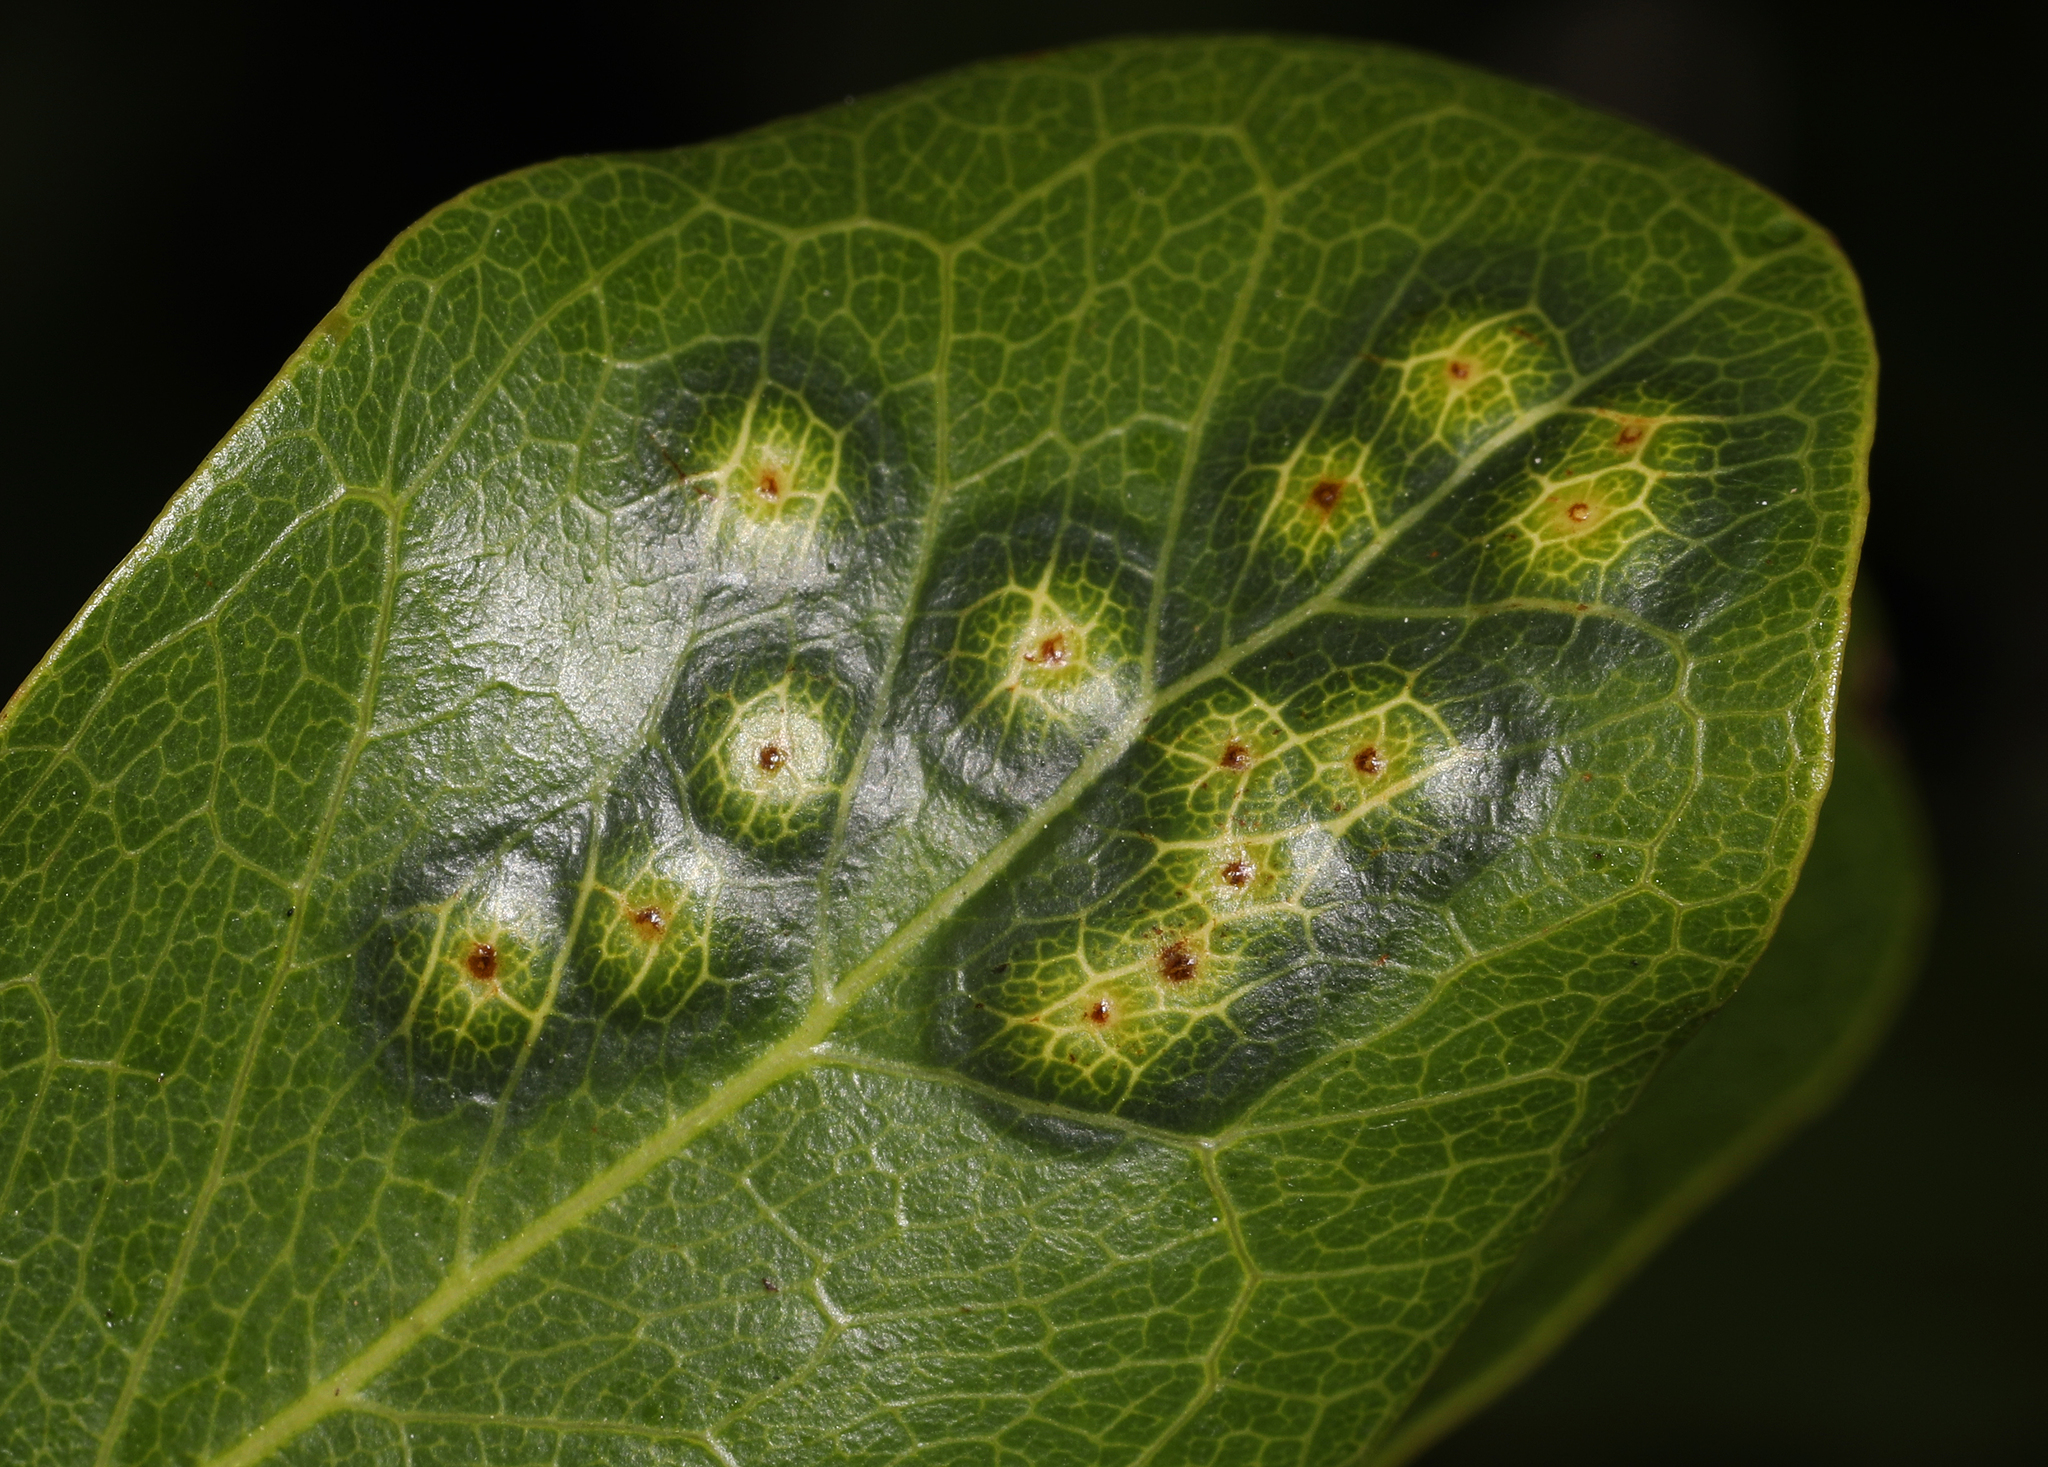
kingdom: Animalia
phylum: Arthropoda
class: Insecta
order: Hymenoptera
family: Tanaostigmatidae
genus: Tanaostigmodes
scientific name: Tanaostigmodes pithecellobiae
